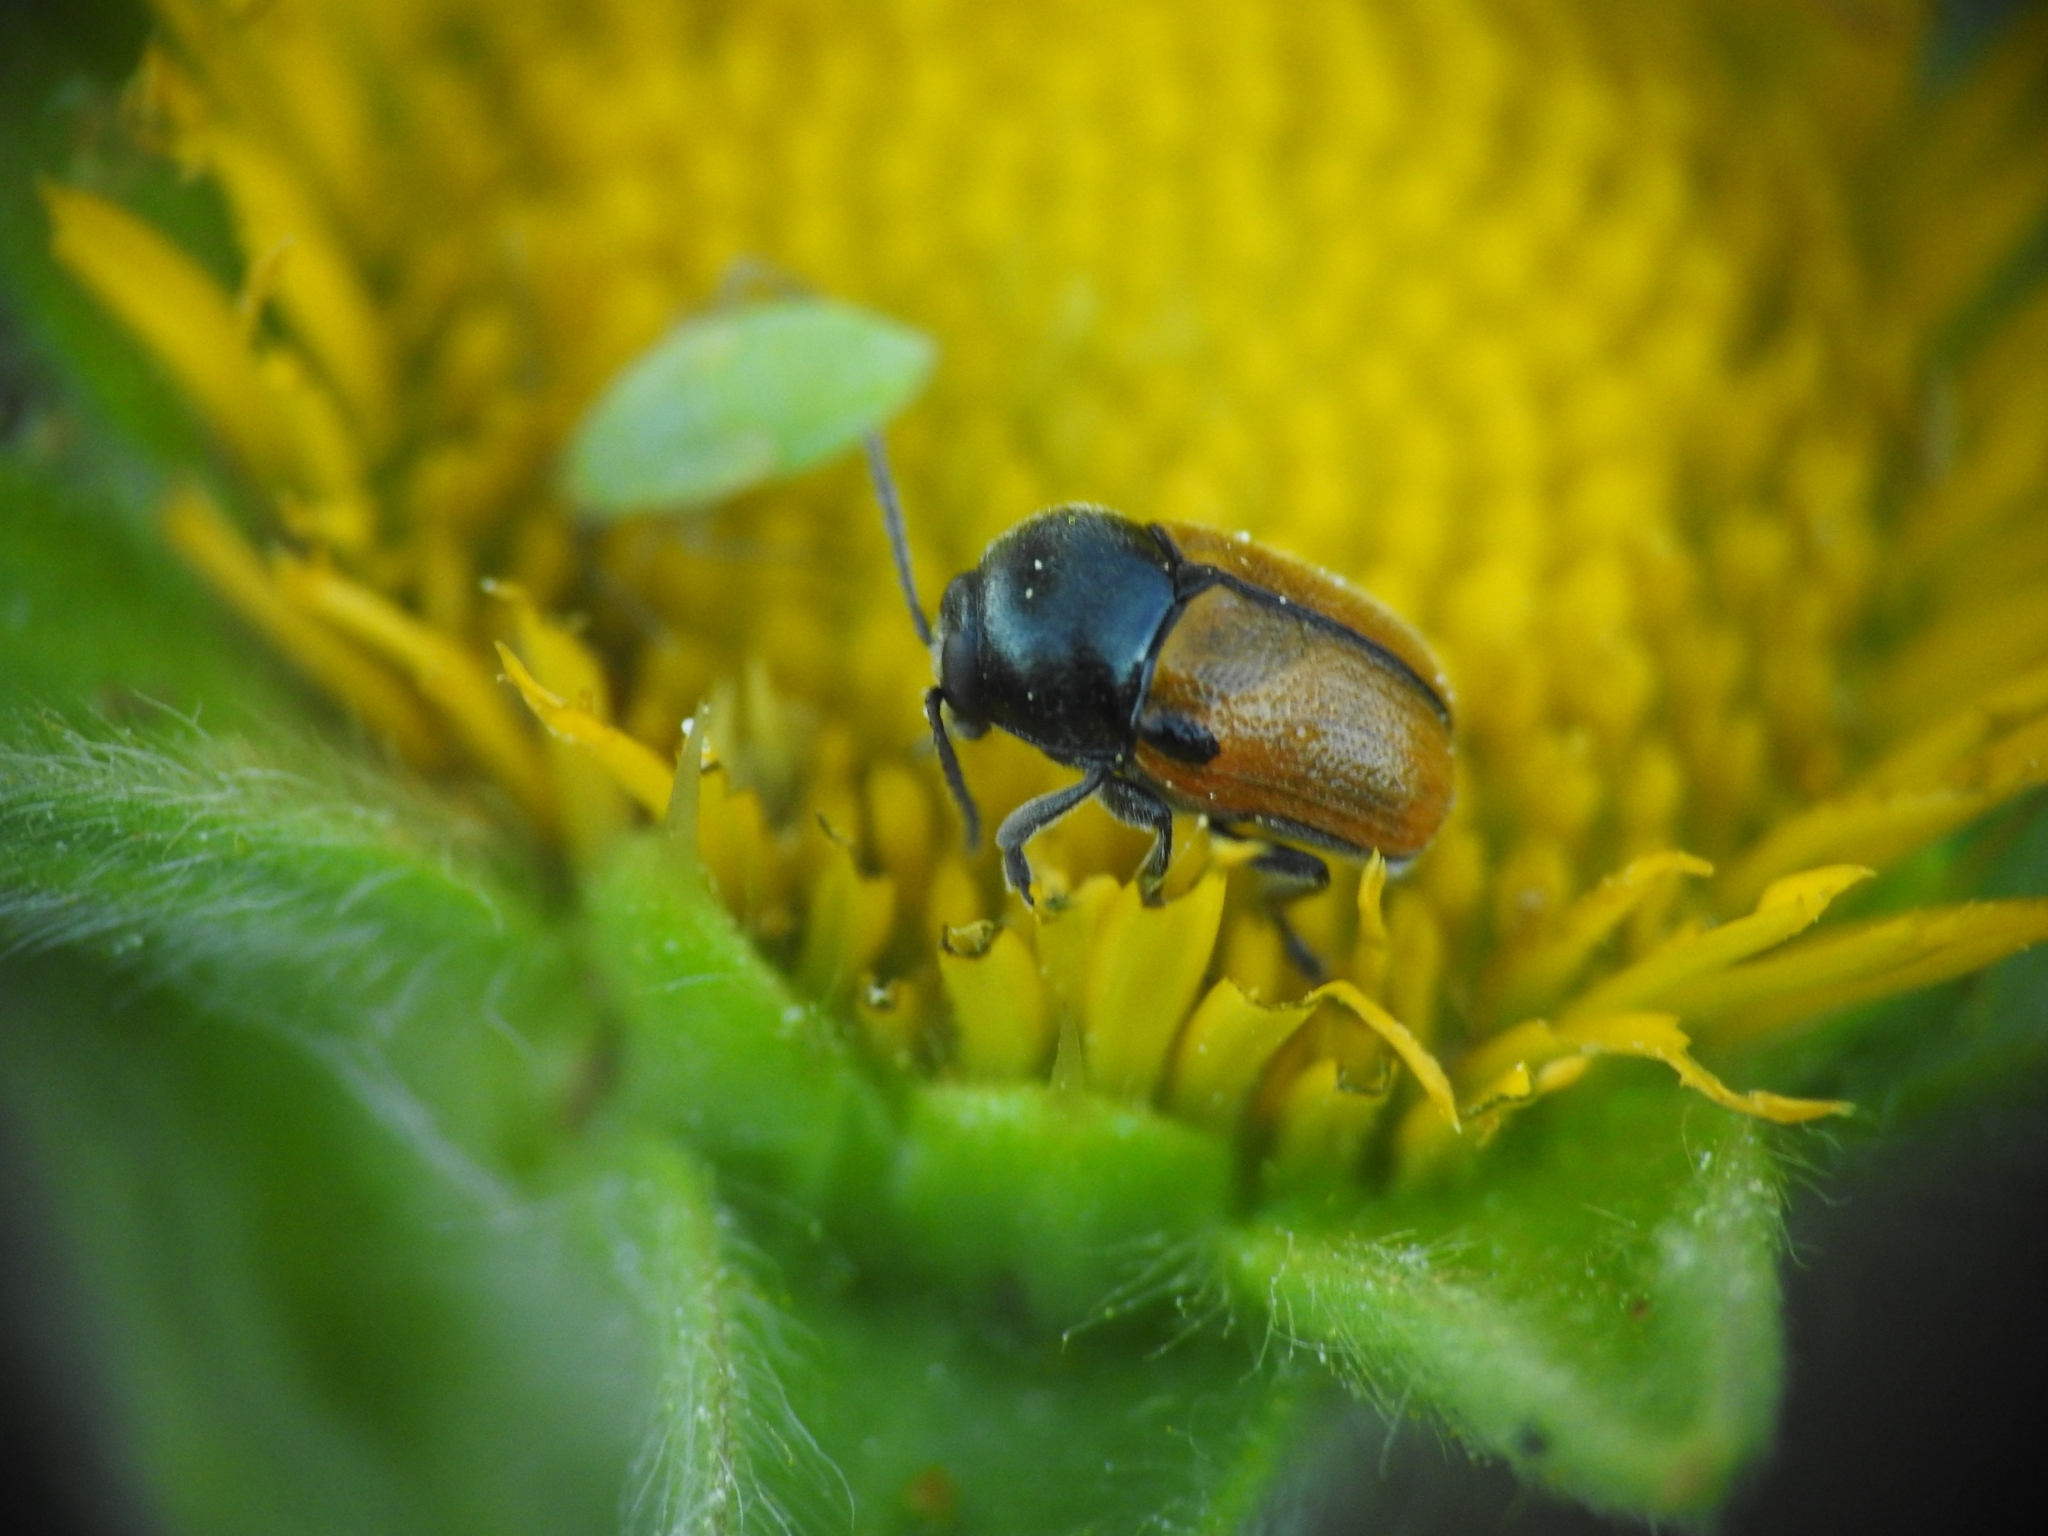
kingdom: Animalia
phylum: Arthropoda
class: Insecta
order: Coleoptera
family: Chrysomelidae
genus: Cryptocephalus
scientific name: Cryptocephalus rugicollis
